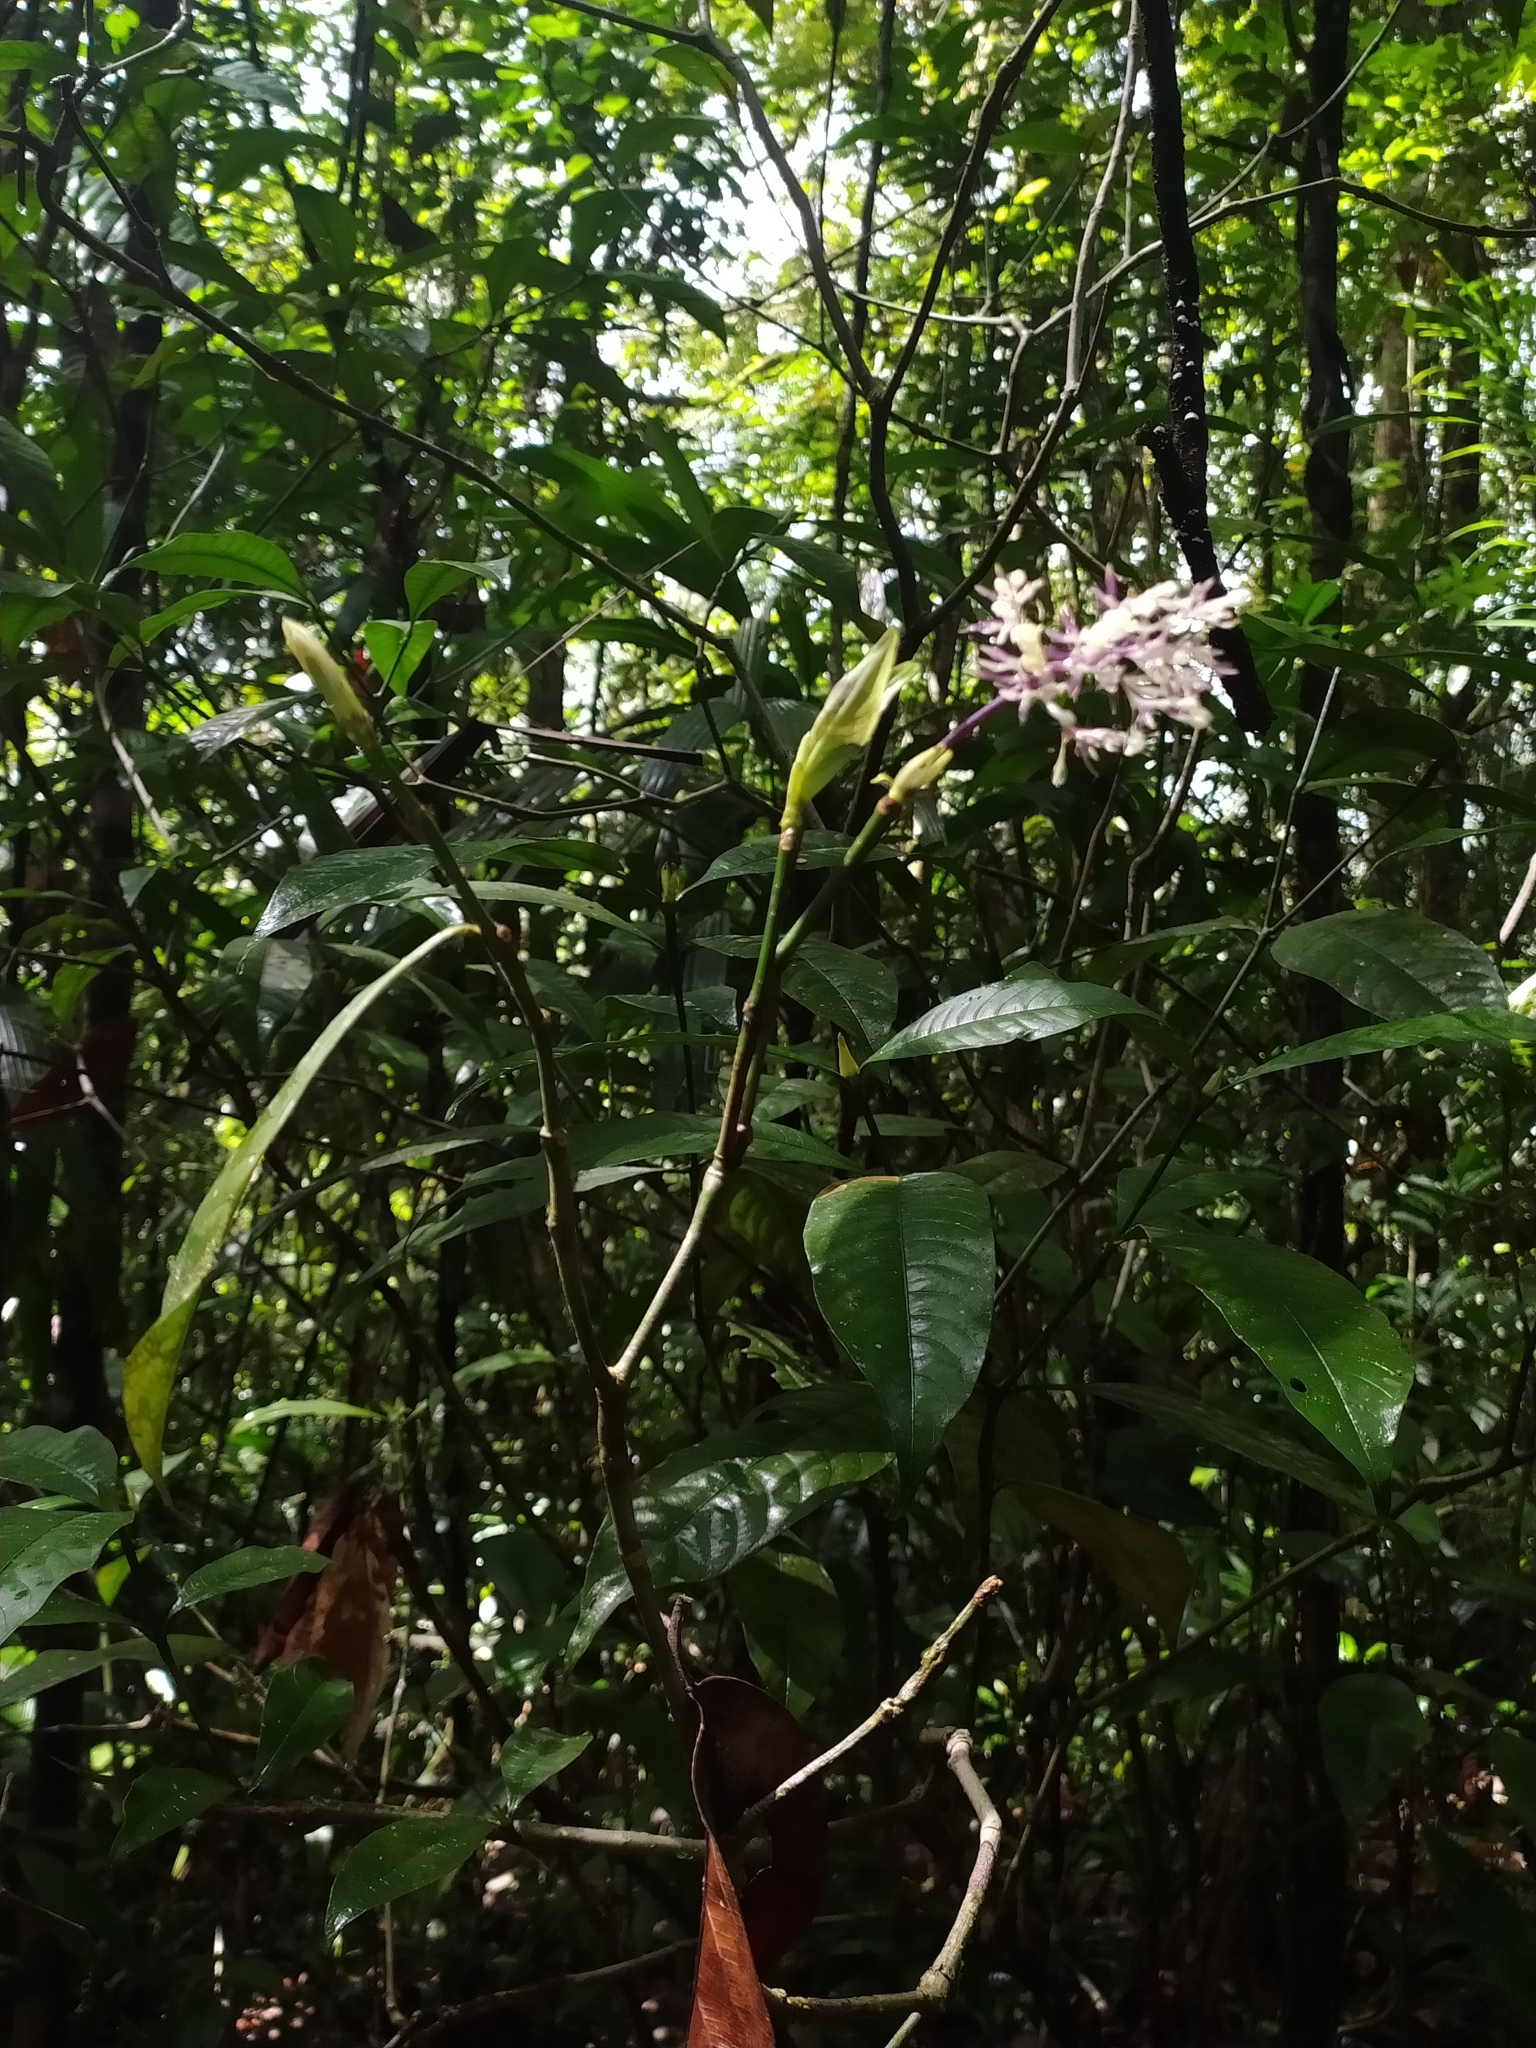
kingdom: Plantae
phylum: Tracheophyta
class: Magnoliopsida
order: Gentianales
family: Rubiaceae
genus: Palicourea
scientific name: Palicourea violacea
